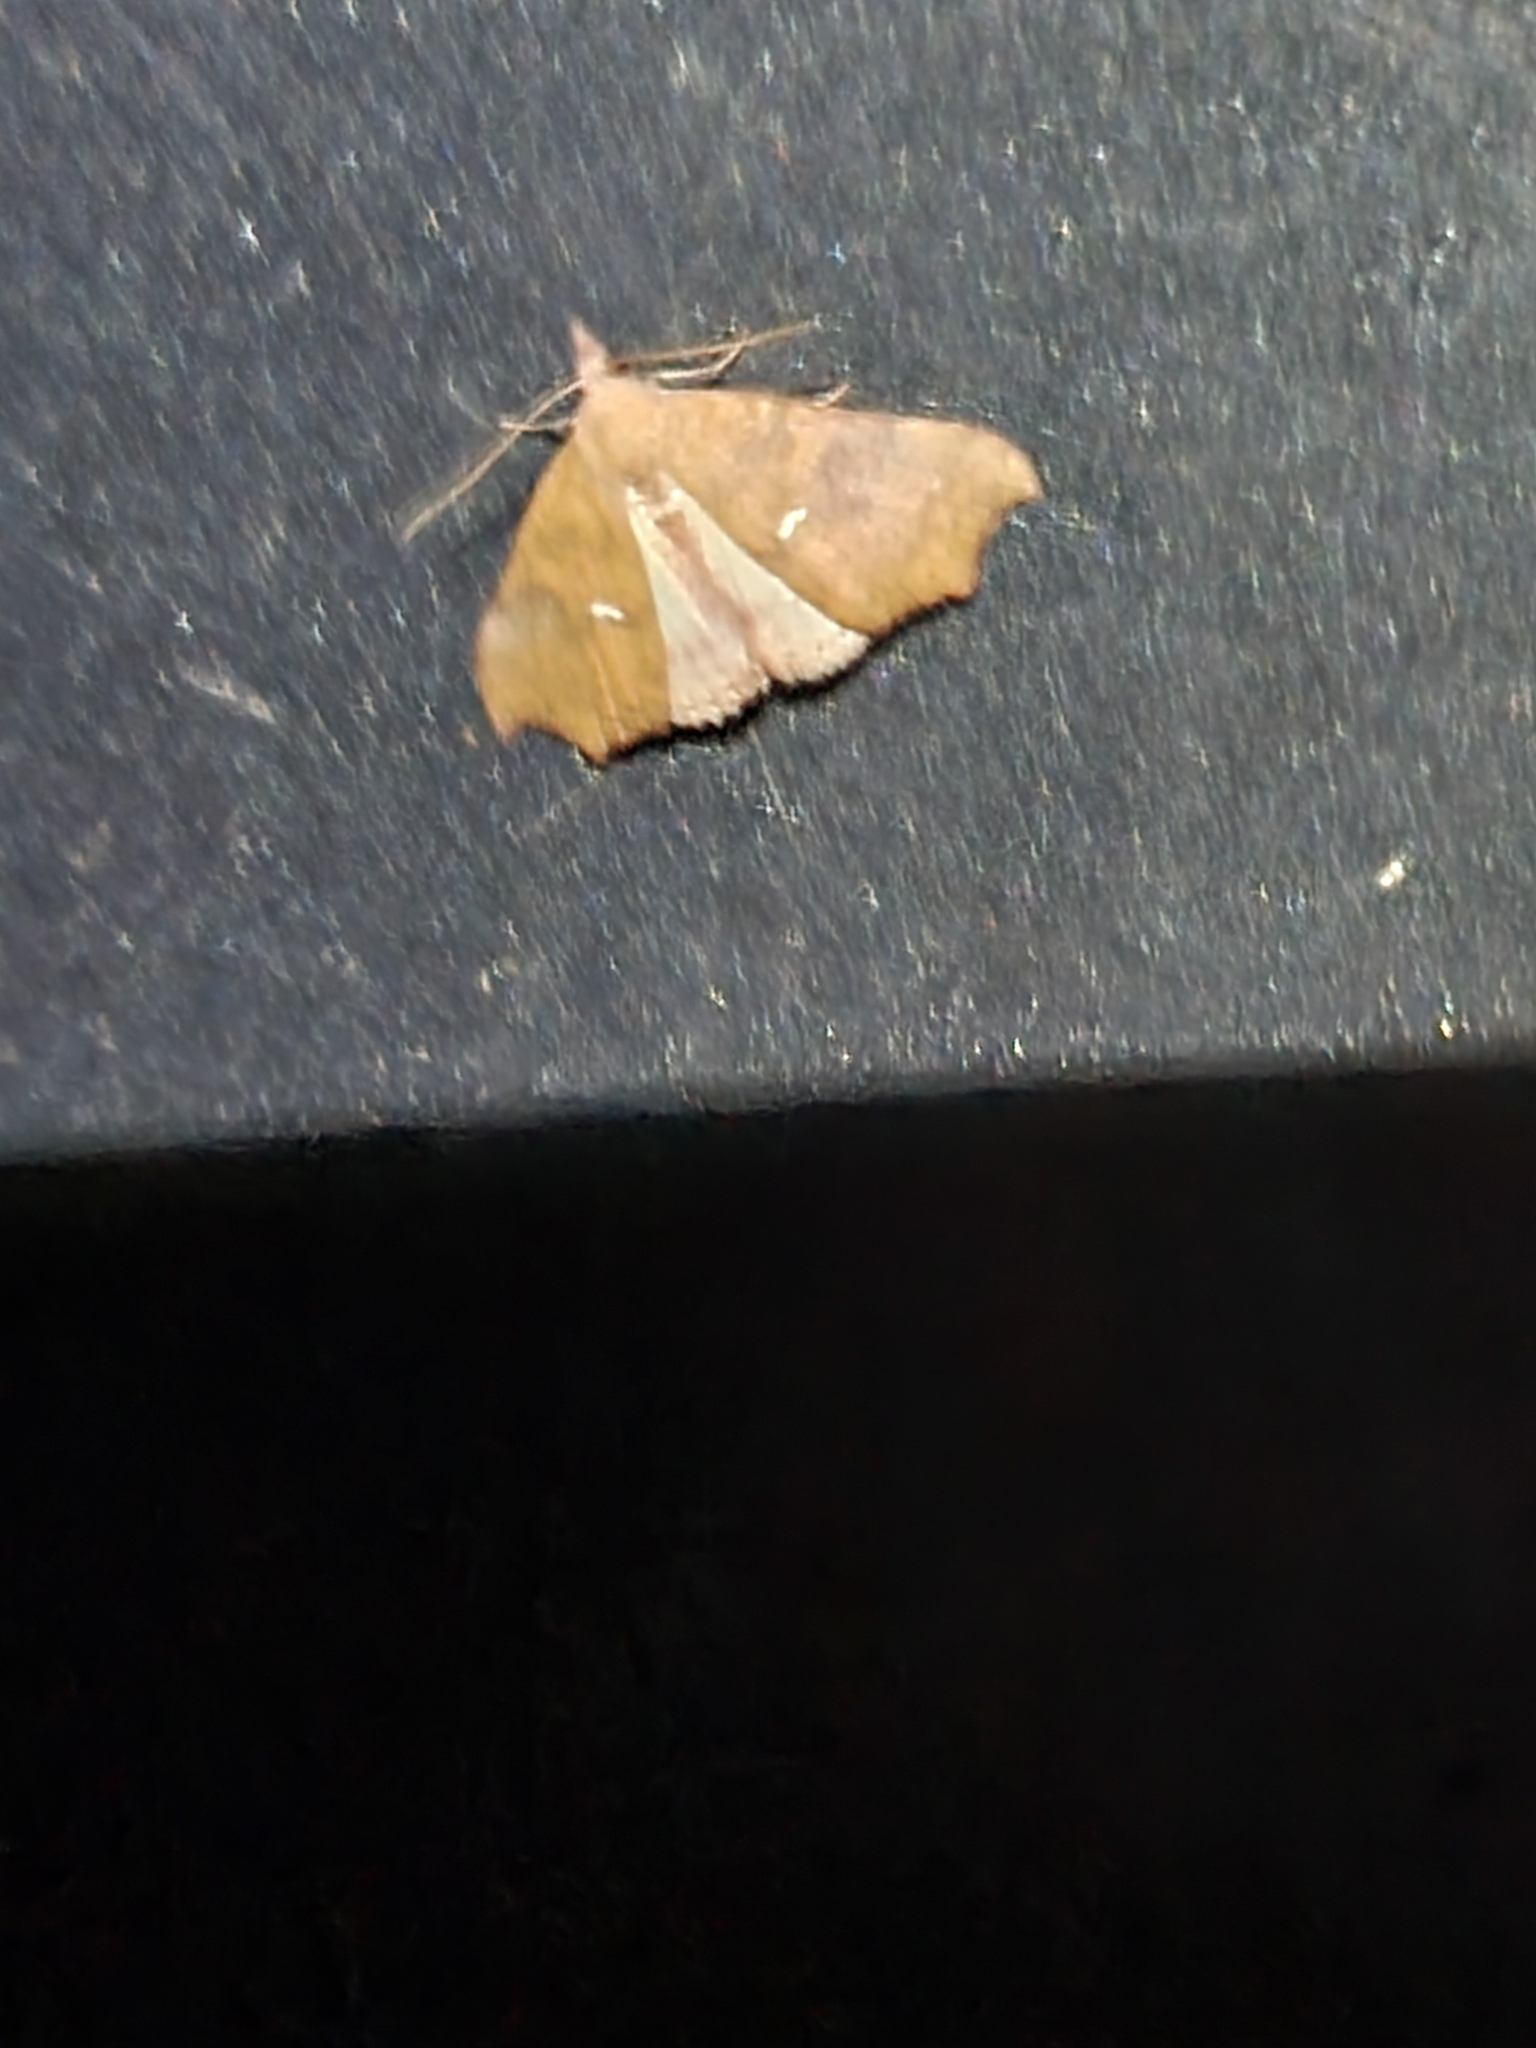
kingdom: Animalia
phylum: Arthropoda
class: Insecta
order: Lepidoptera
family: Erebidae
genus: Axiocteta
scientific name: Axiocteta oenoplex
